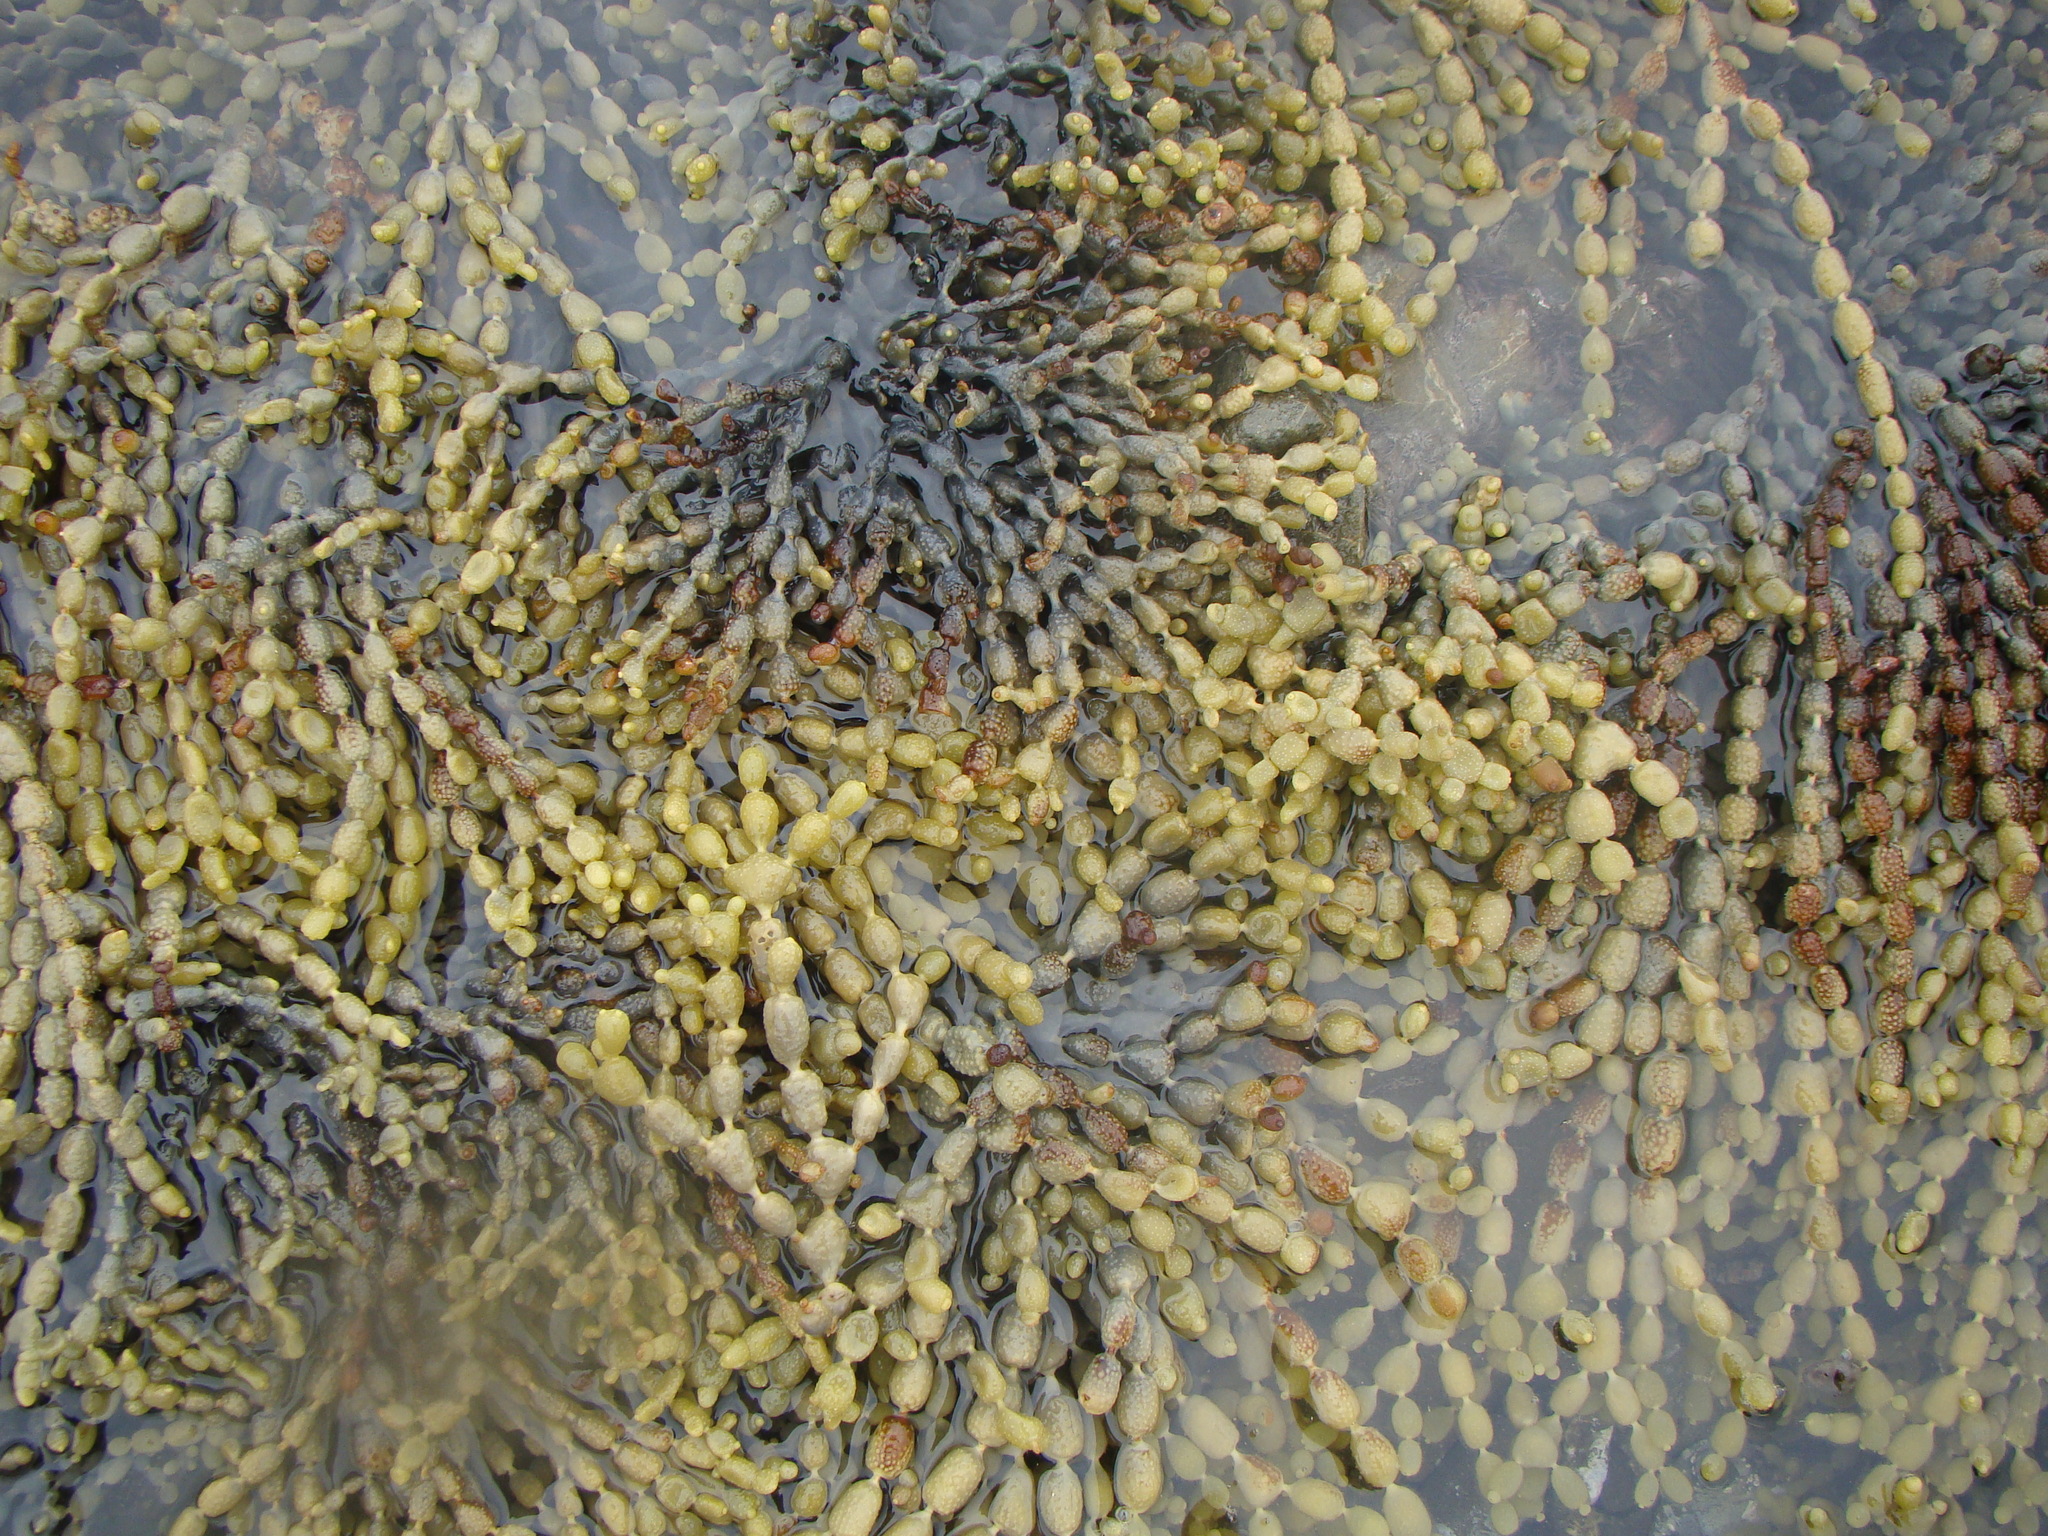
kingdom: Chromista
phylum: Ochrophyta
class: Phaeophyceae
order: Fucales
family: Hormosiraceae
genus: Hormosira
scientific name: Hormosira banksii
